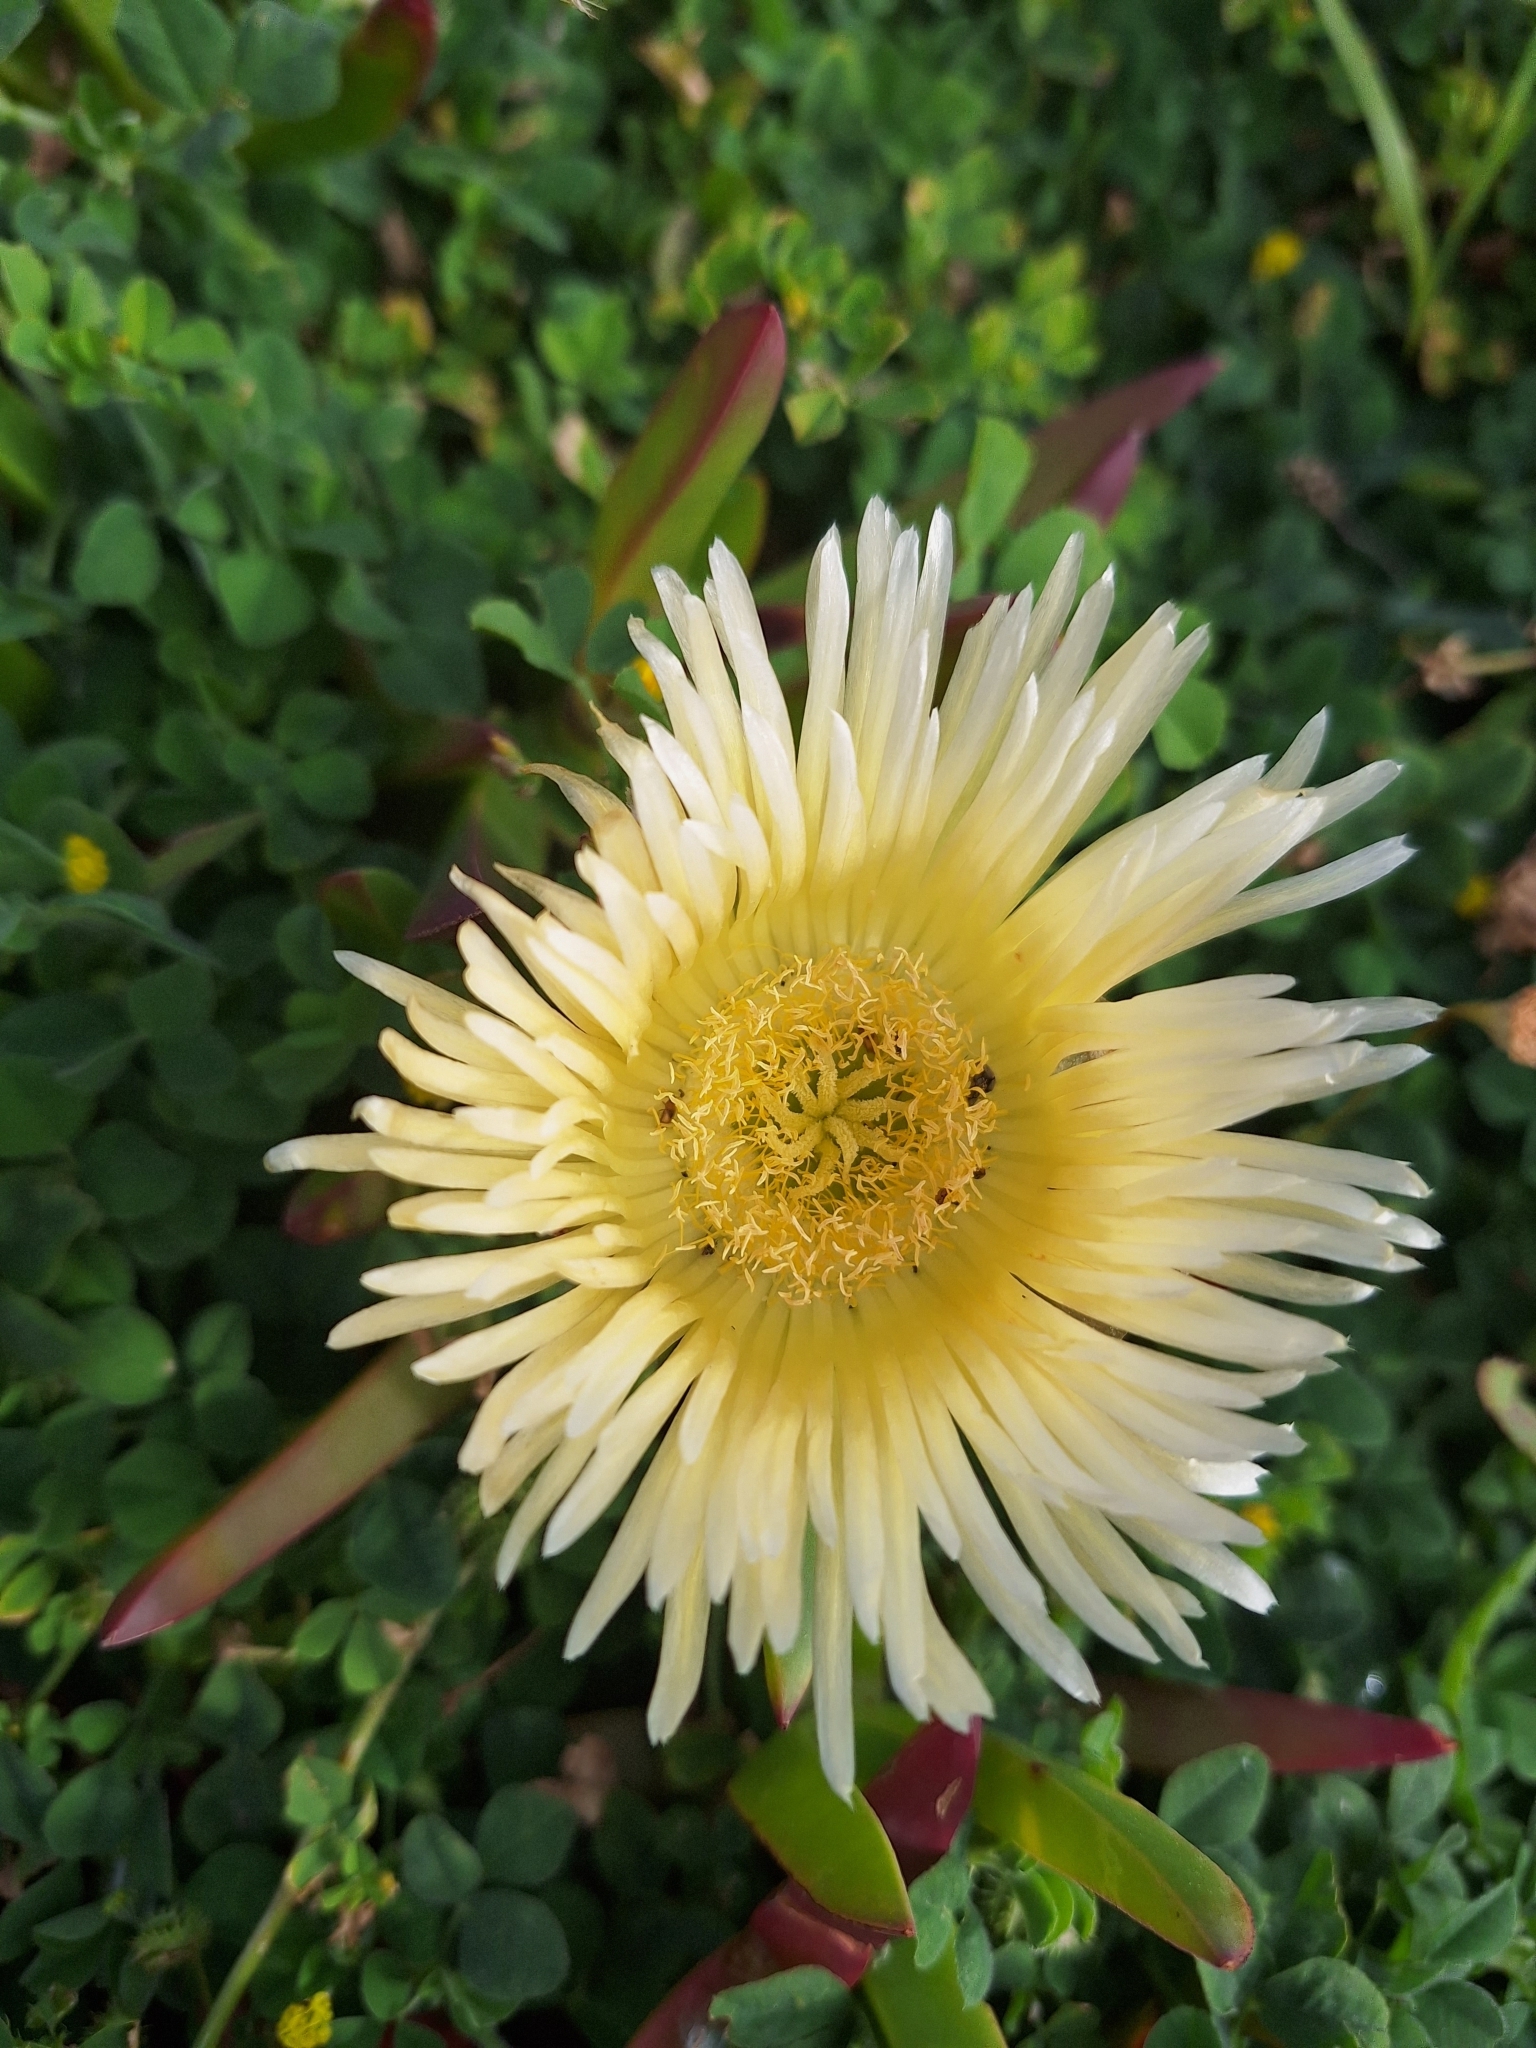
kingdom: Plantae
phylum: Tracheophyta
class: Magnoliopsida
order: Caryophyllales
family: Aizoaceae
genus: Carpobrotus
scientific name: Carpobrotus edulis
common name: Hottentot-fig
